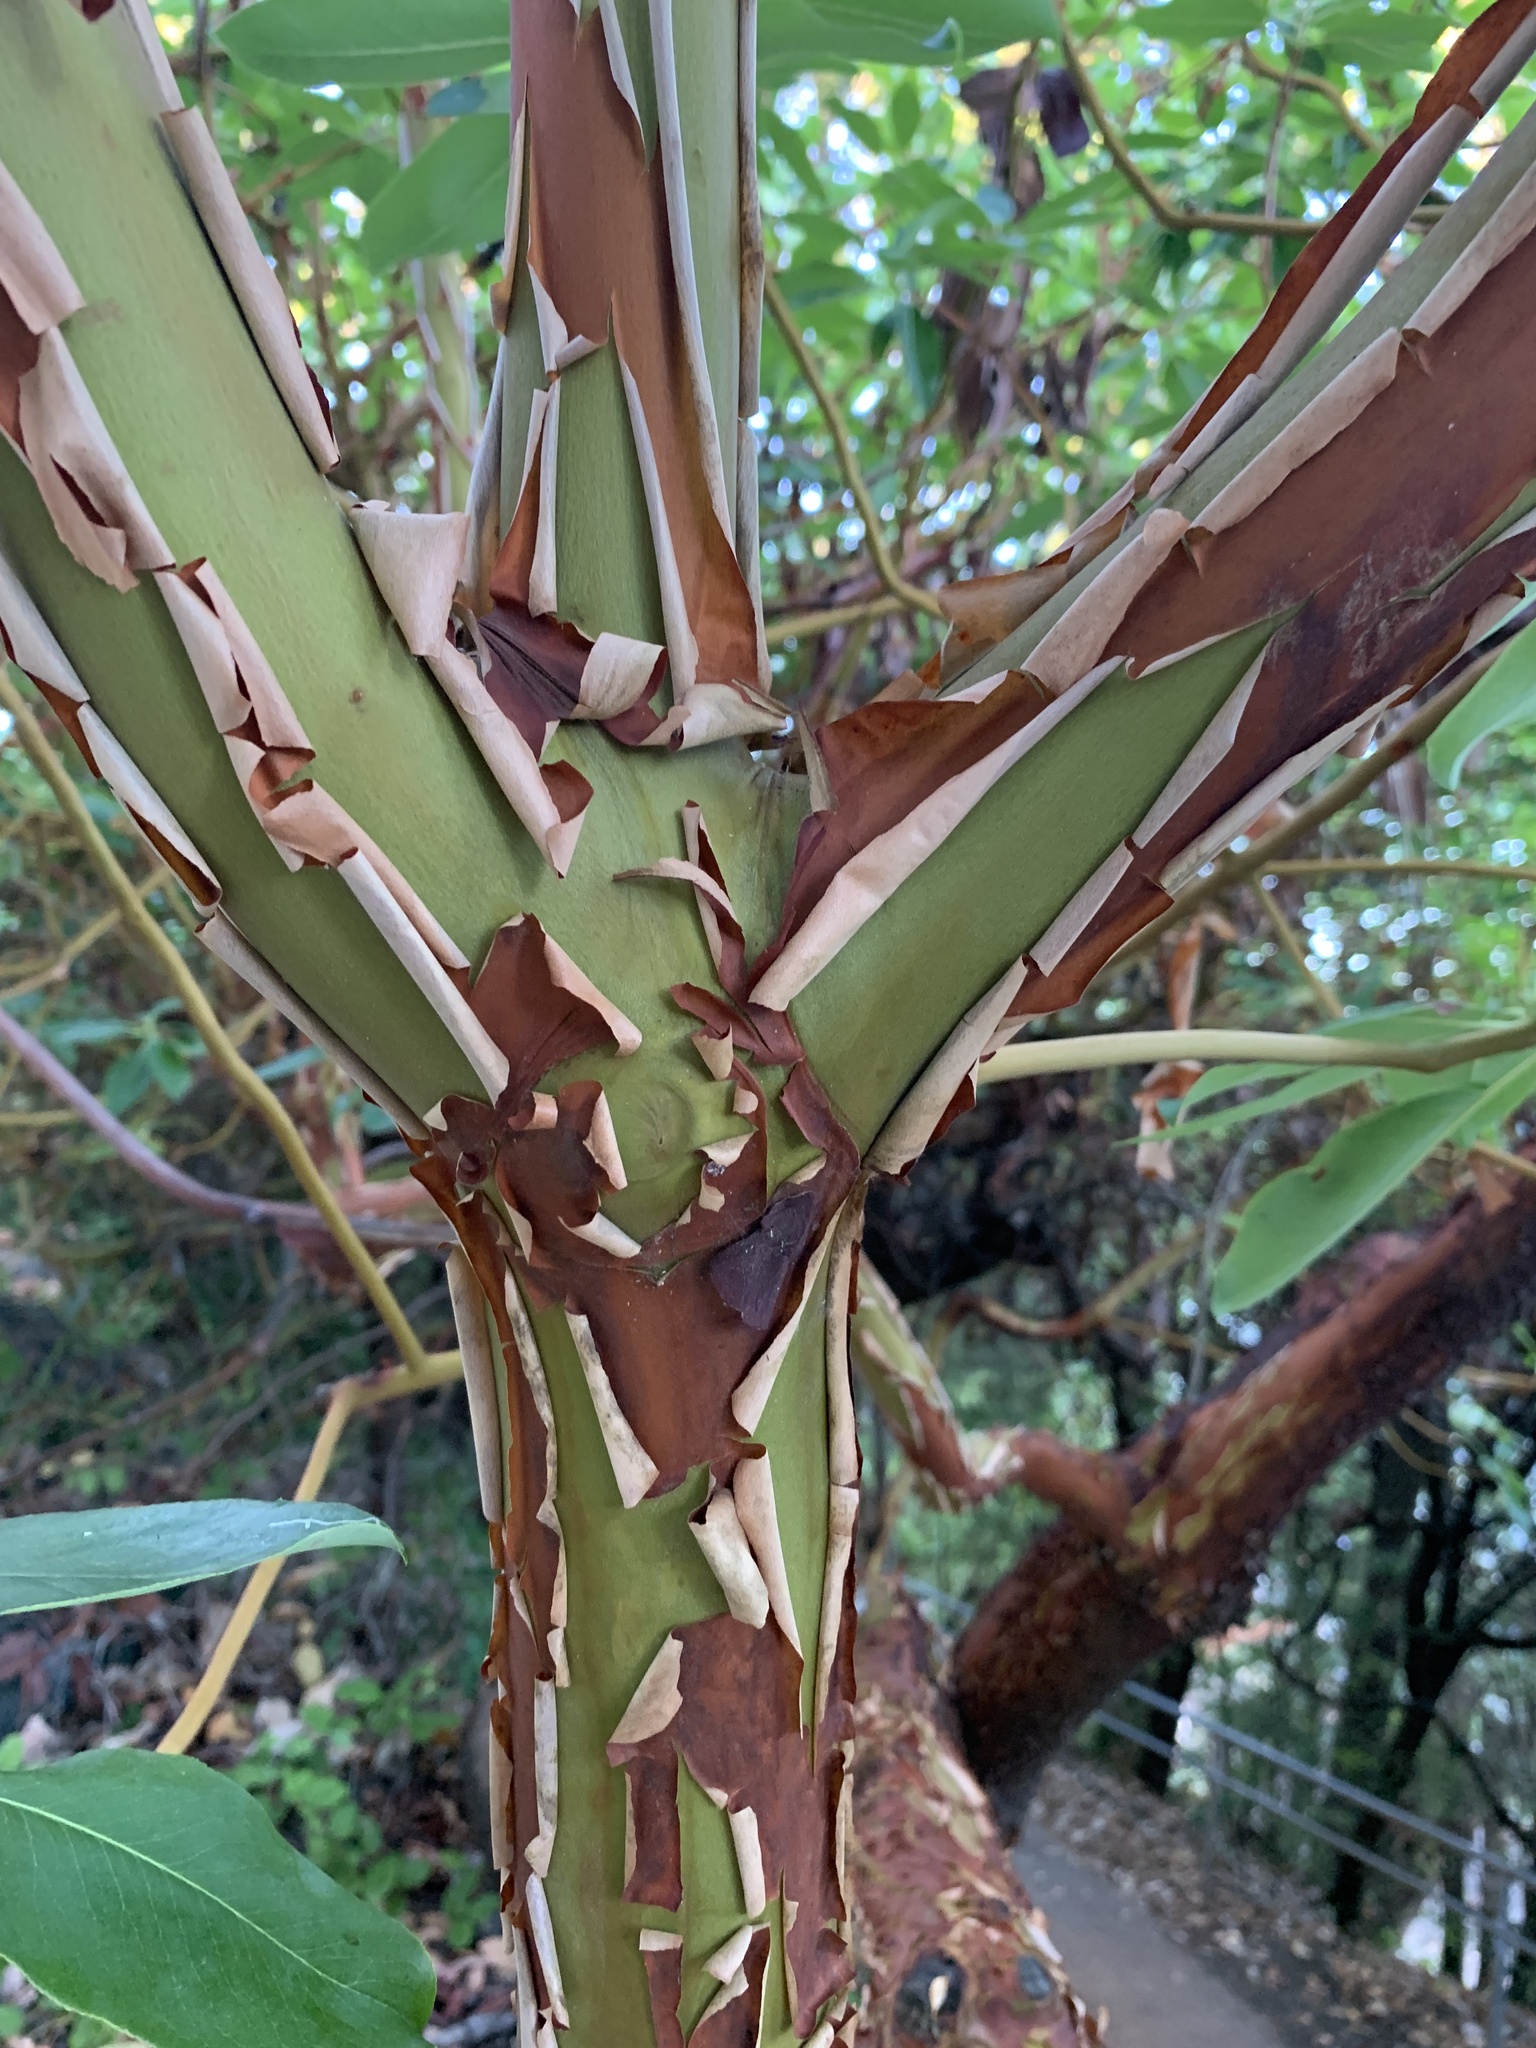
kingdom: Plantae
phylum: Tracheophyta
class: Magnoliopsida
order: Ericales
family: Ericaceae
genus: Arbutus
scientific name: Arbutus menziesii
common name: Pacific madrone
